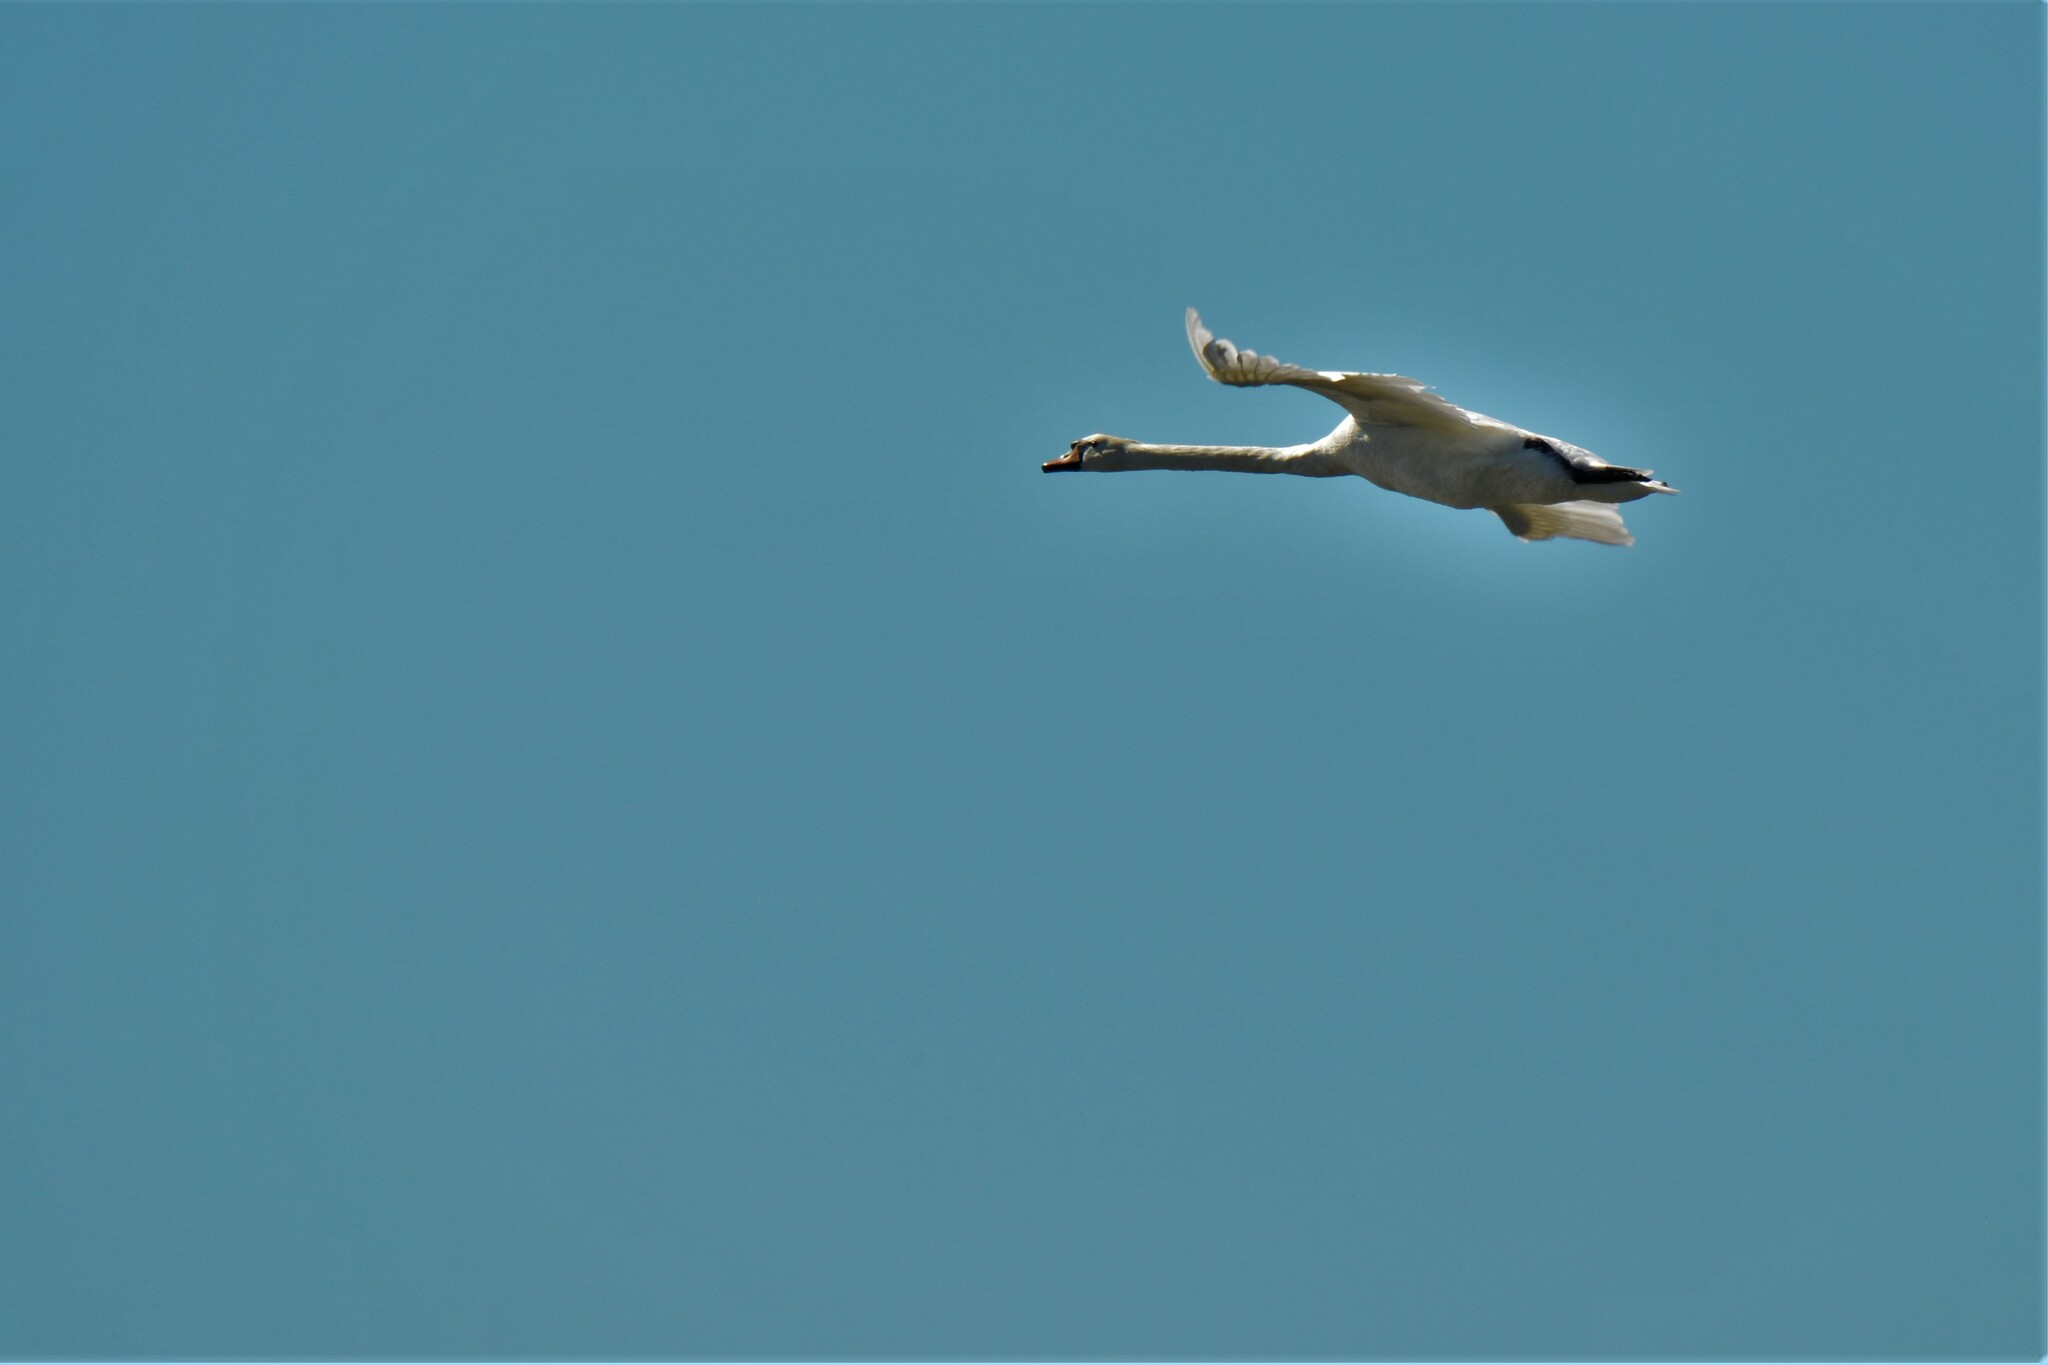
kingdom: Animalia
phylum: Chordata
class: Aves
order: Anseriformes
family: Anatidae
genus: Cygnus
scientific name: Cygnus olor
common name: Mute swan
